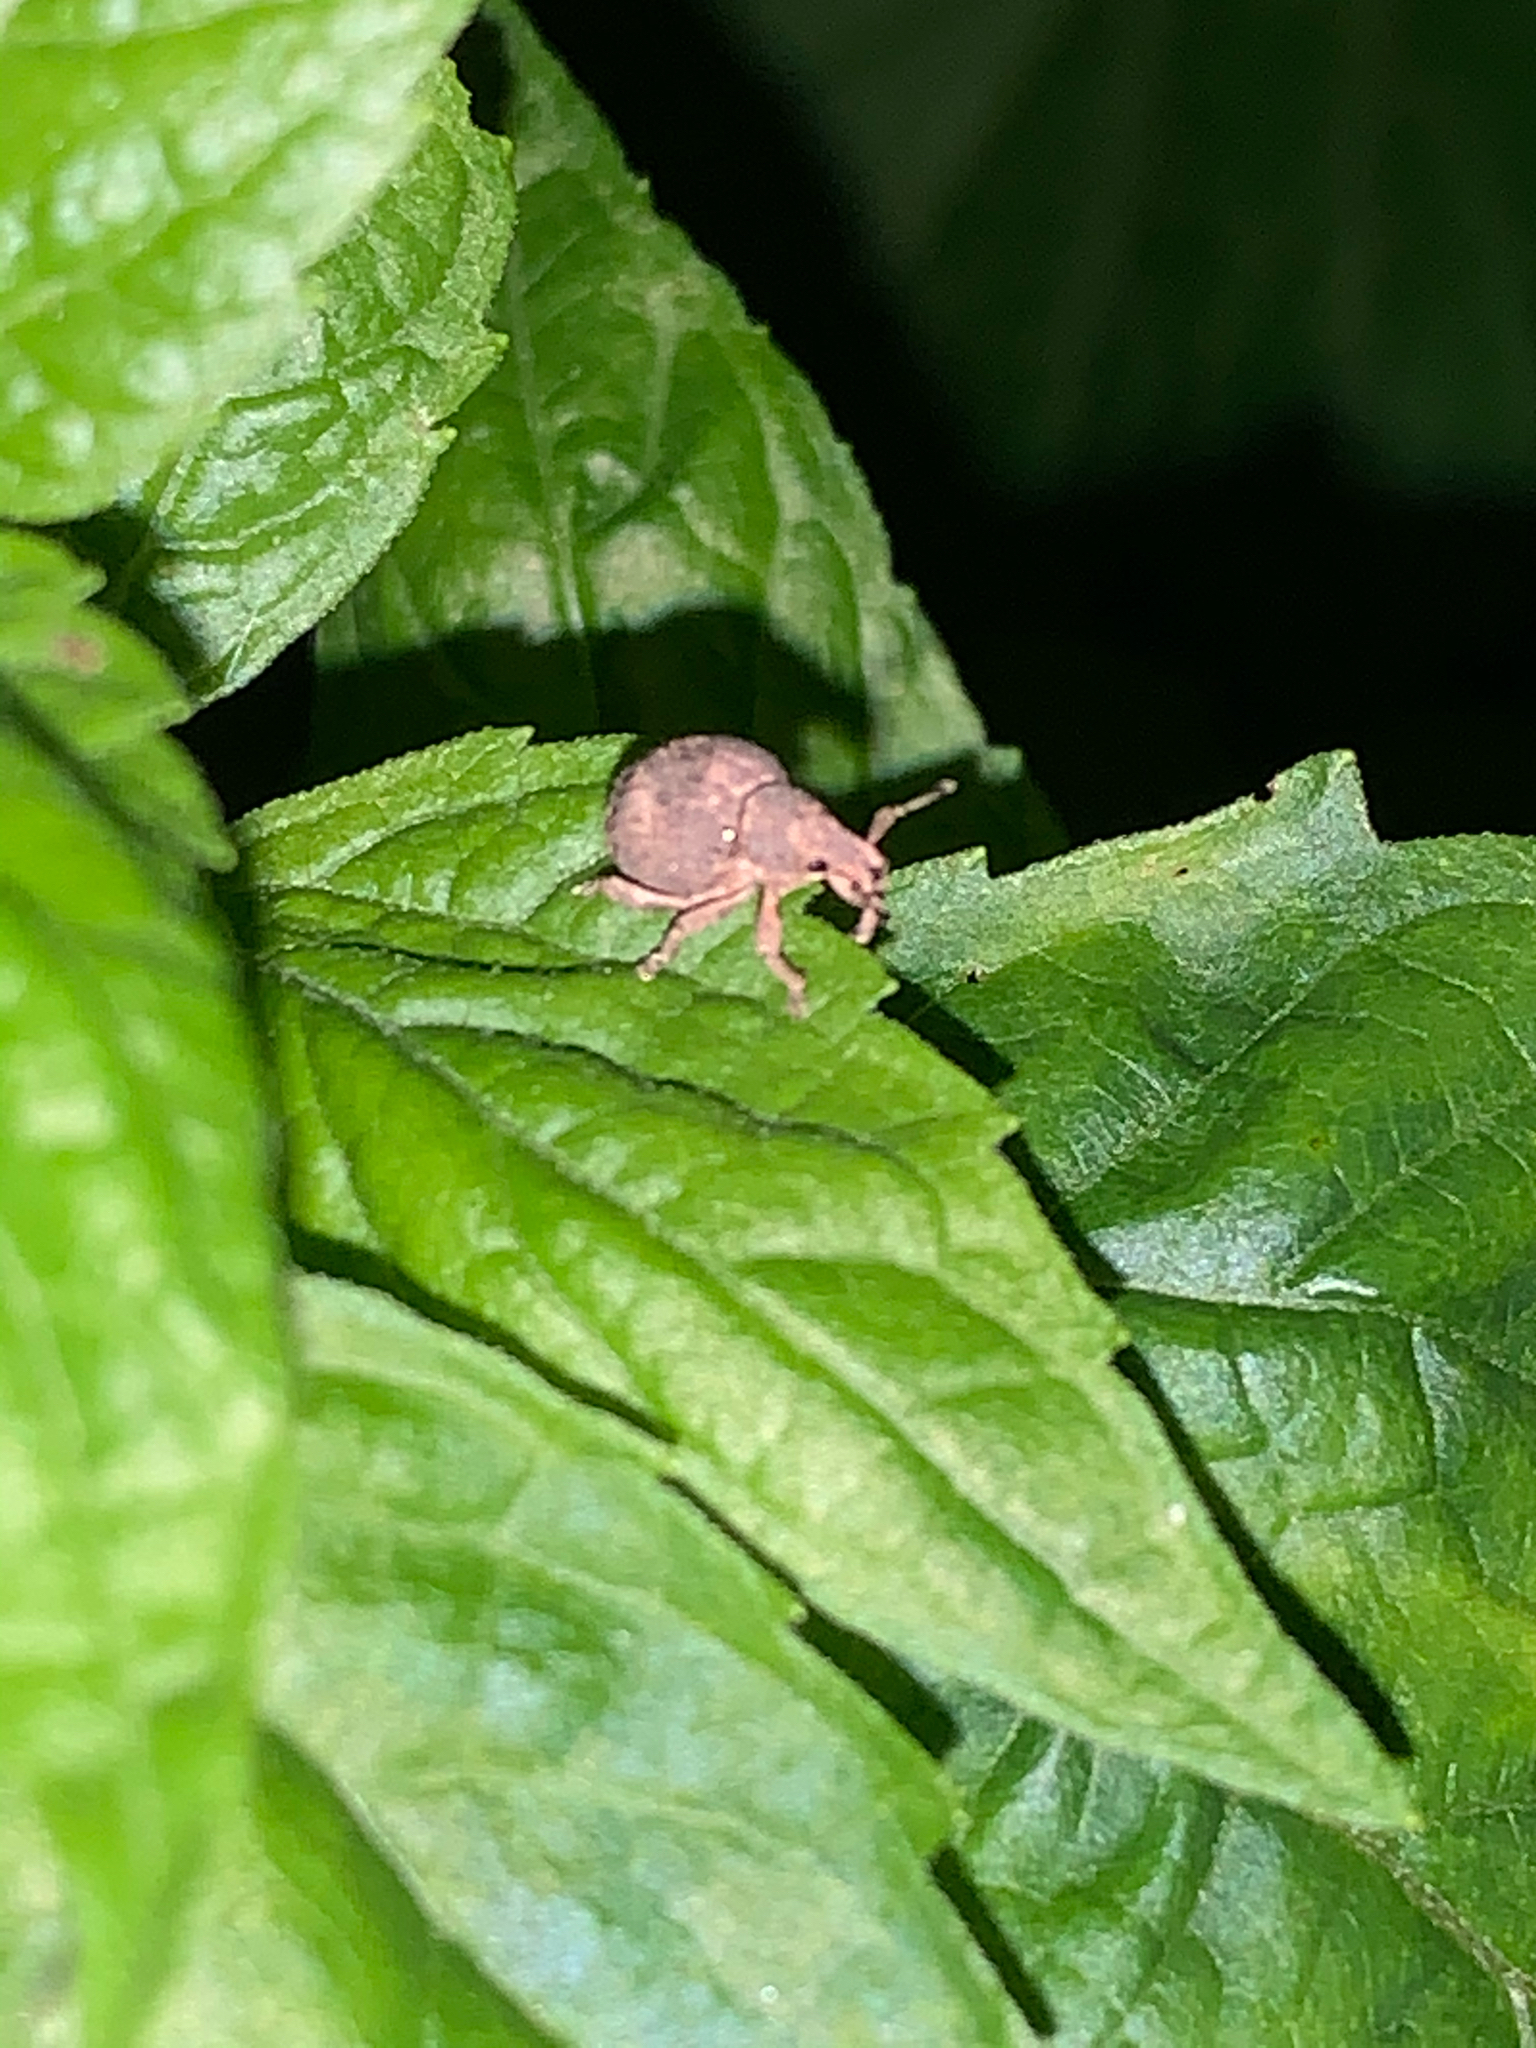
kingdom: Animalia
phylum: Arthropoda
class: Insecta
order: Coleoptera
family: Curculionidae
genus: Pseudocneorhinus
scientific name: Pseudocneorhinus bifasciatus
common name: Two-banded japanese weevil
